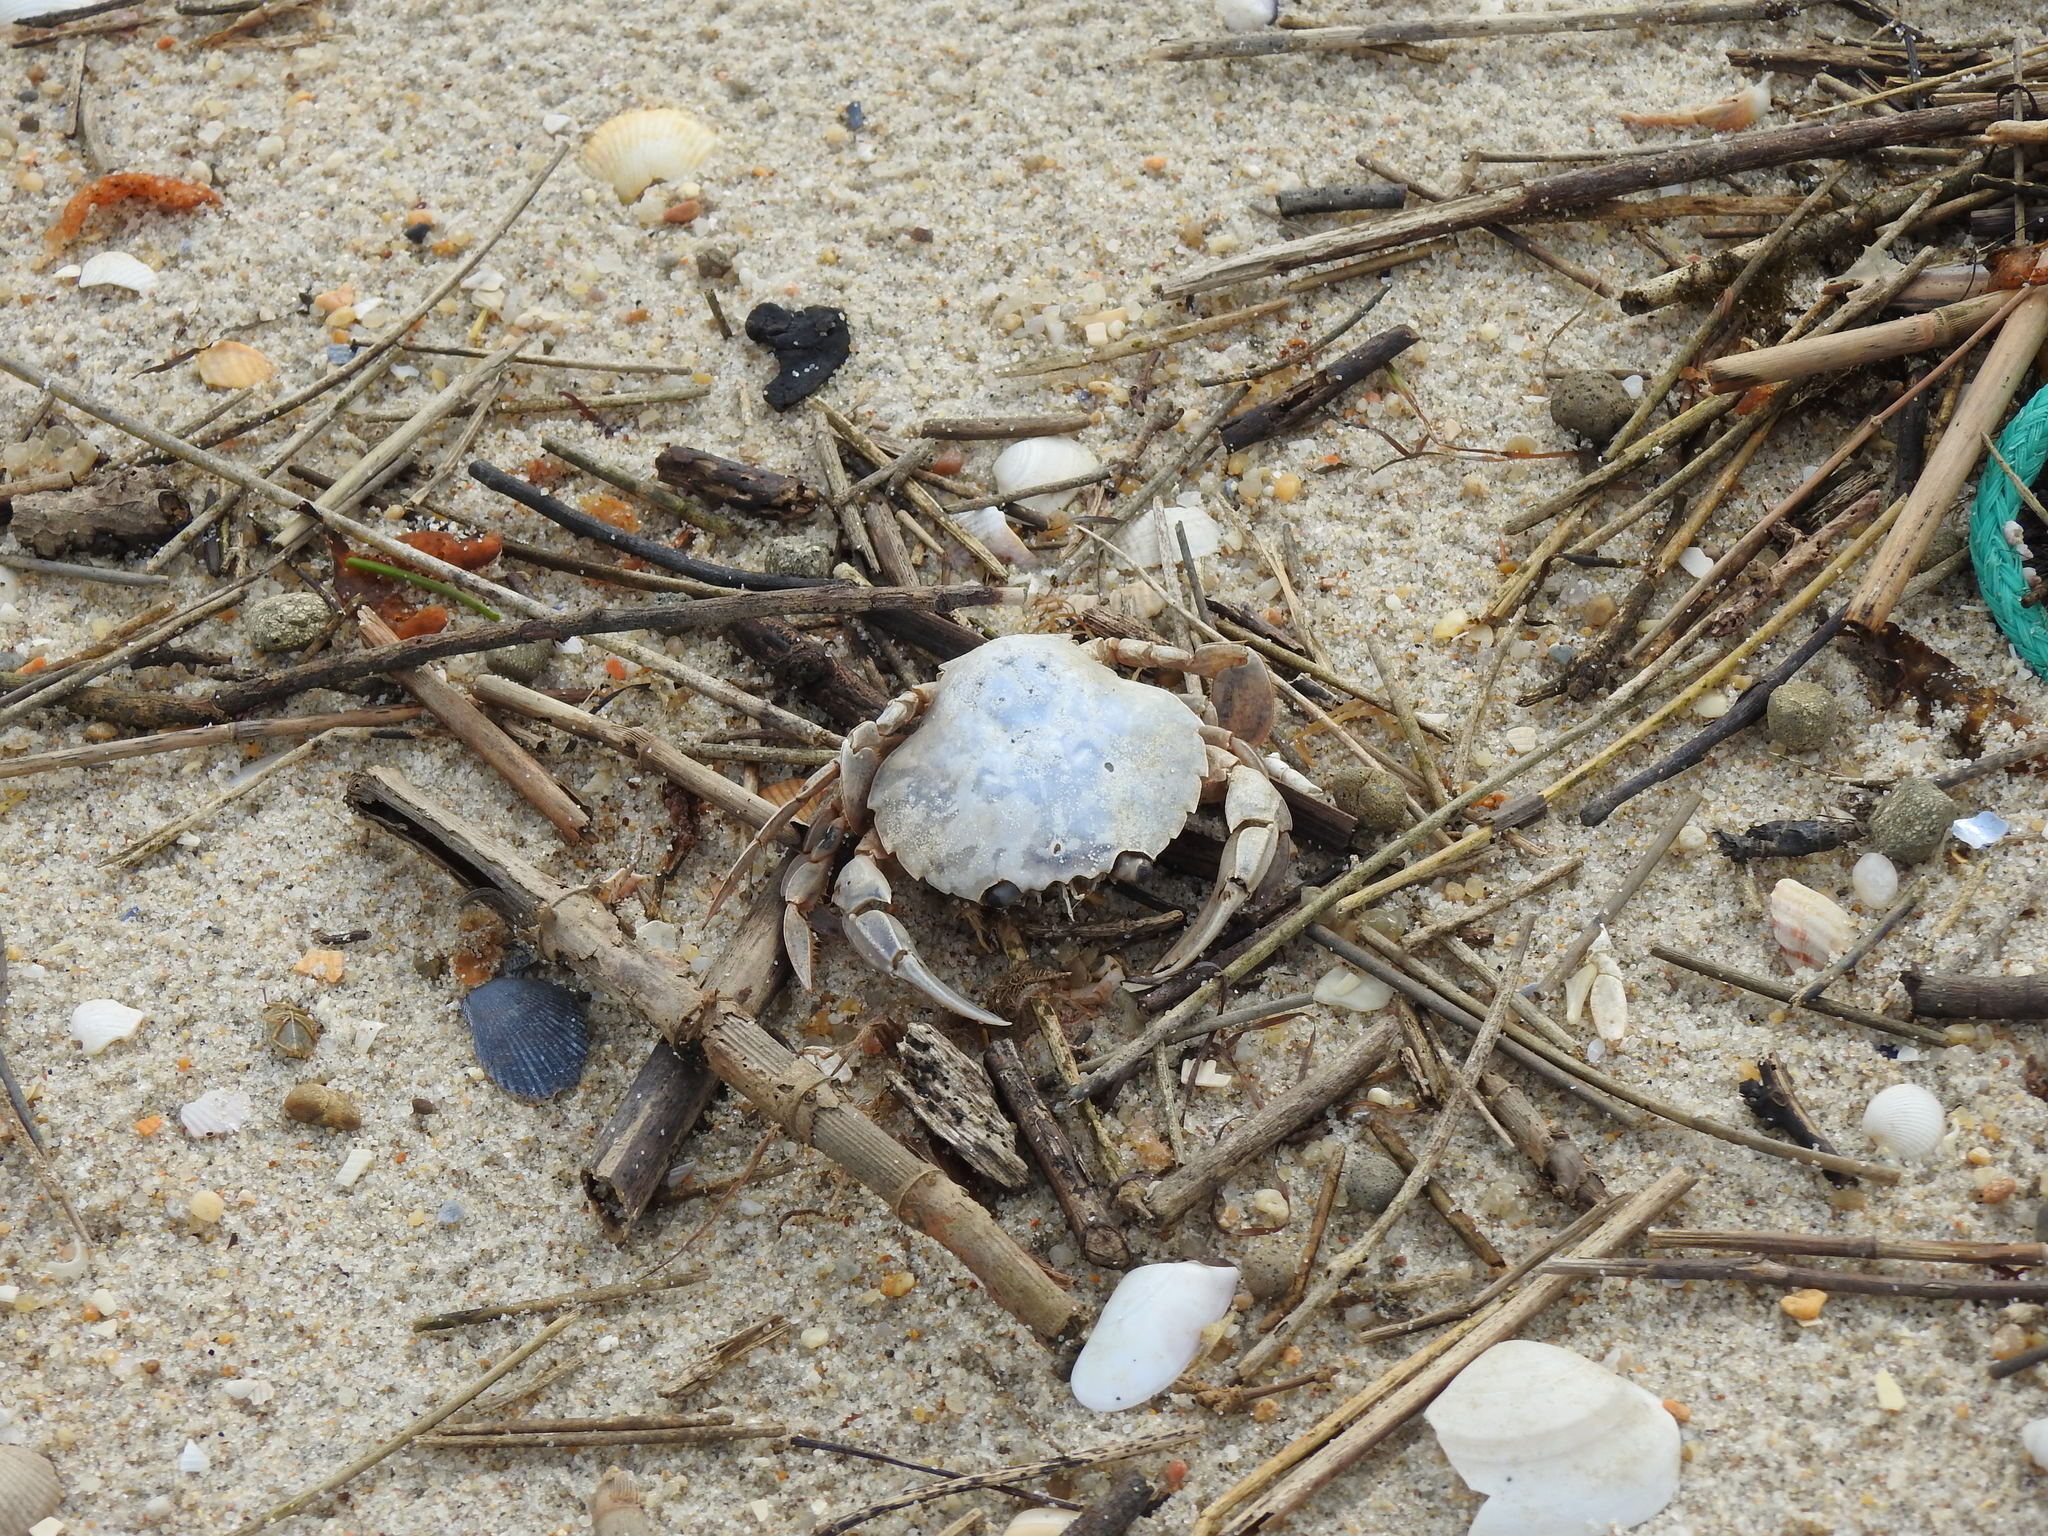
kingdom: Animalia
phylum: Arthropoda
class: Malacostraca
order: Decapoda
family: Polybiidae
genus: Polybius
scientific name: Polybius henslowii
